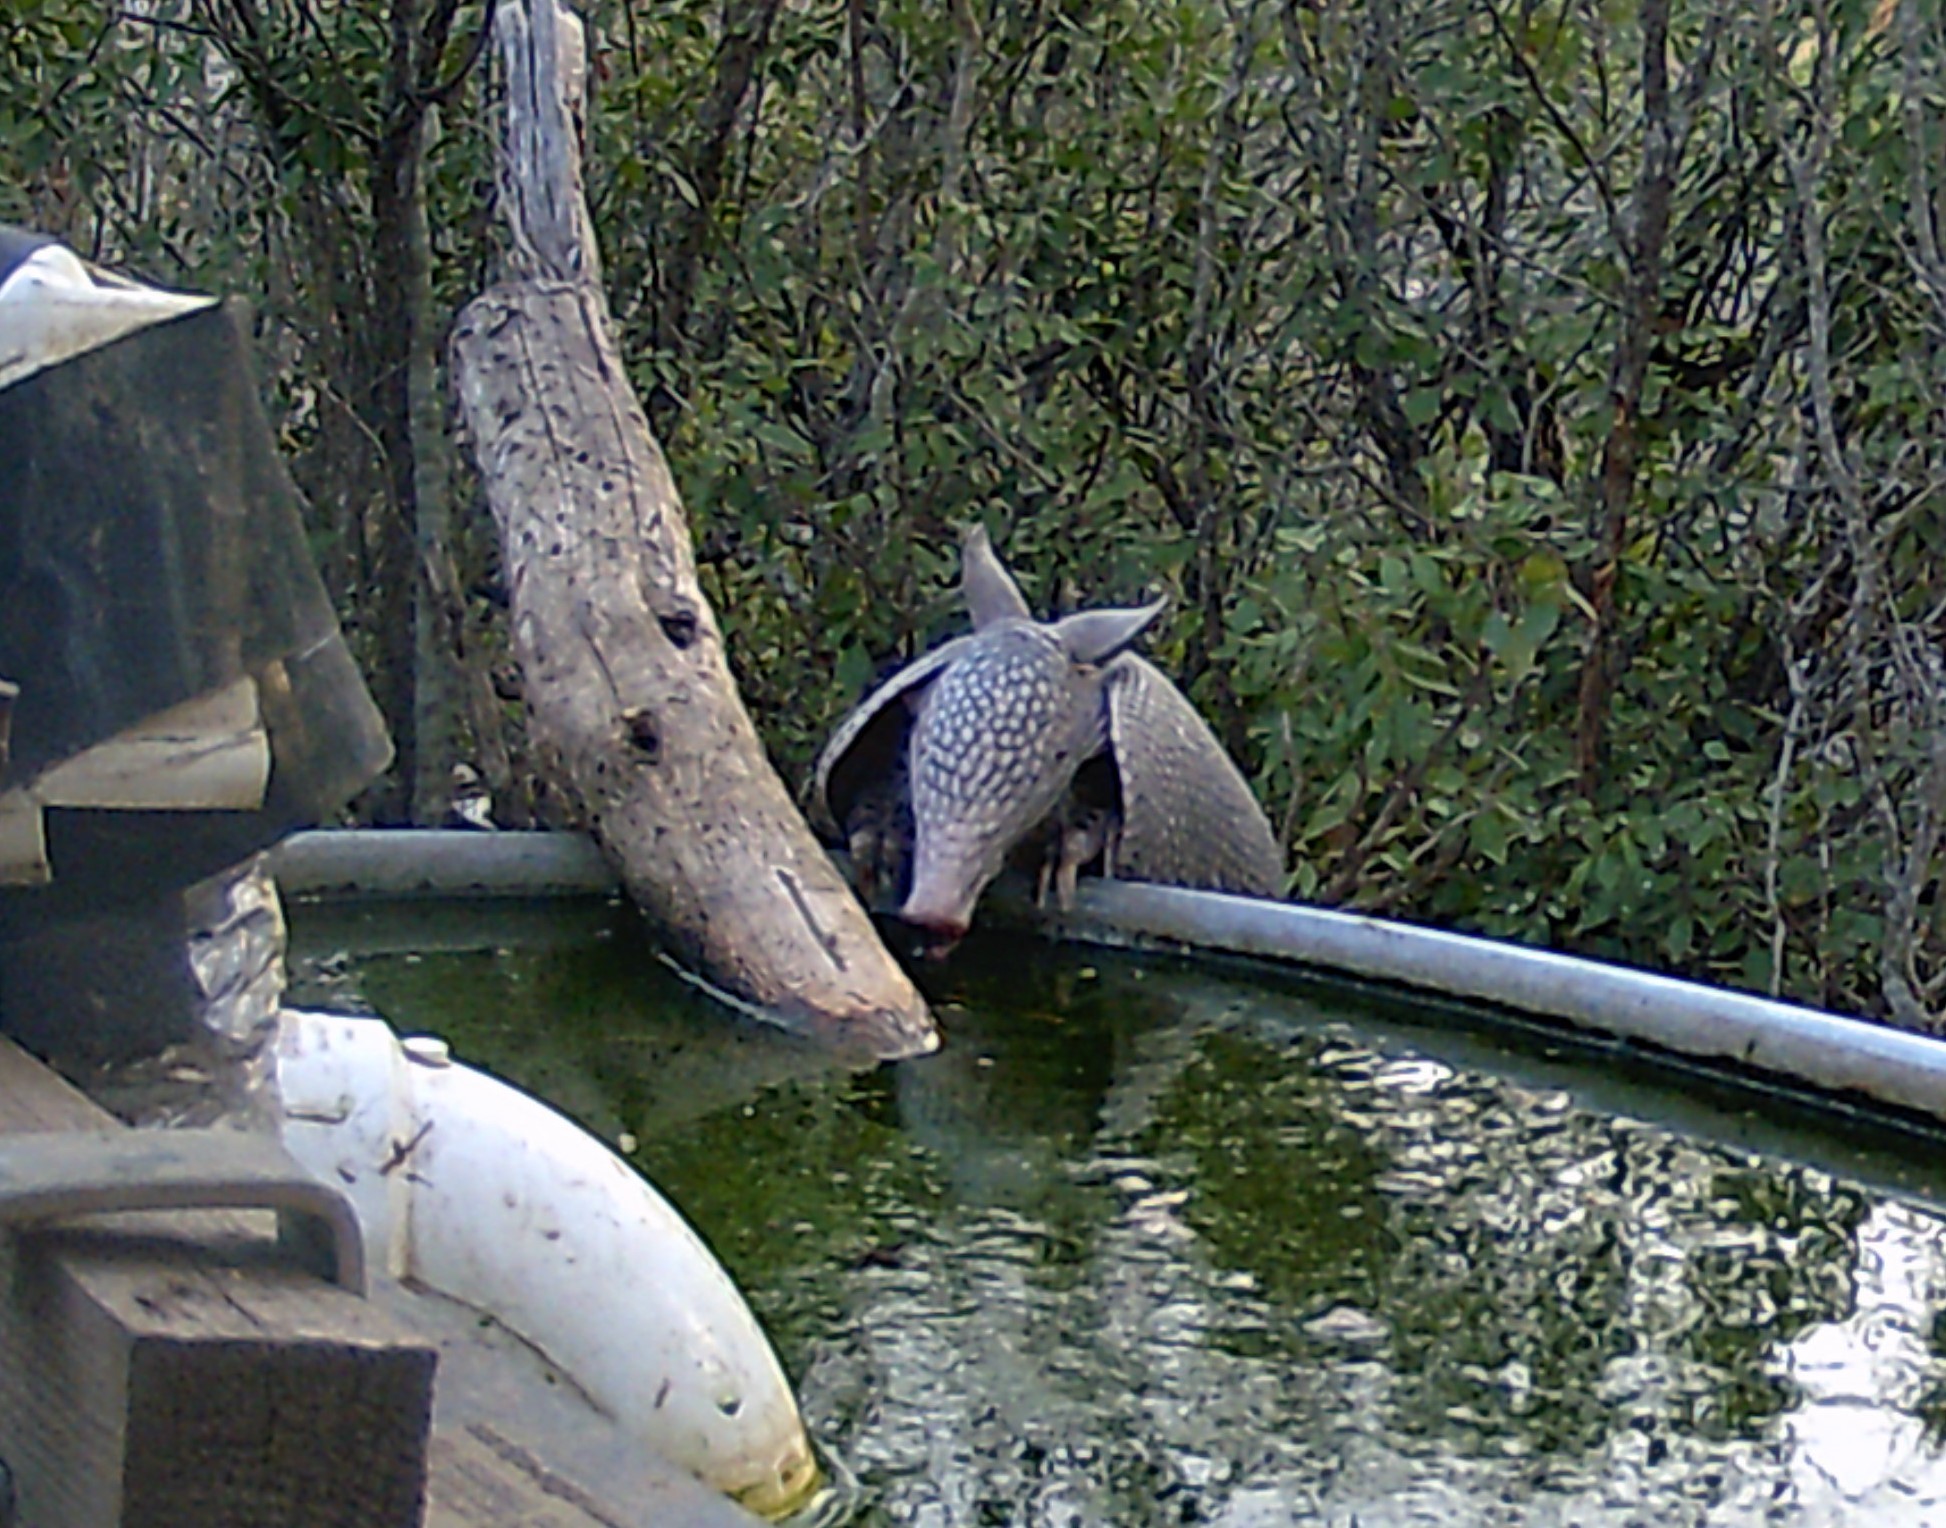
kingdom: Animalia
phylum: Chordata
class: Mammalia
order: Cingulata
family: Dasypodidae
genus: Dasypus
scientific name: Dasypus novemcinctus
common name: Nine-banded armadillo
